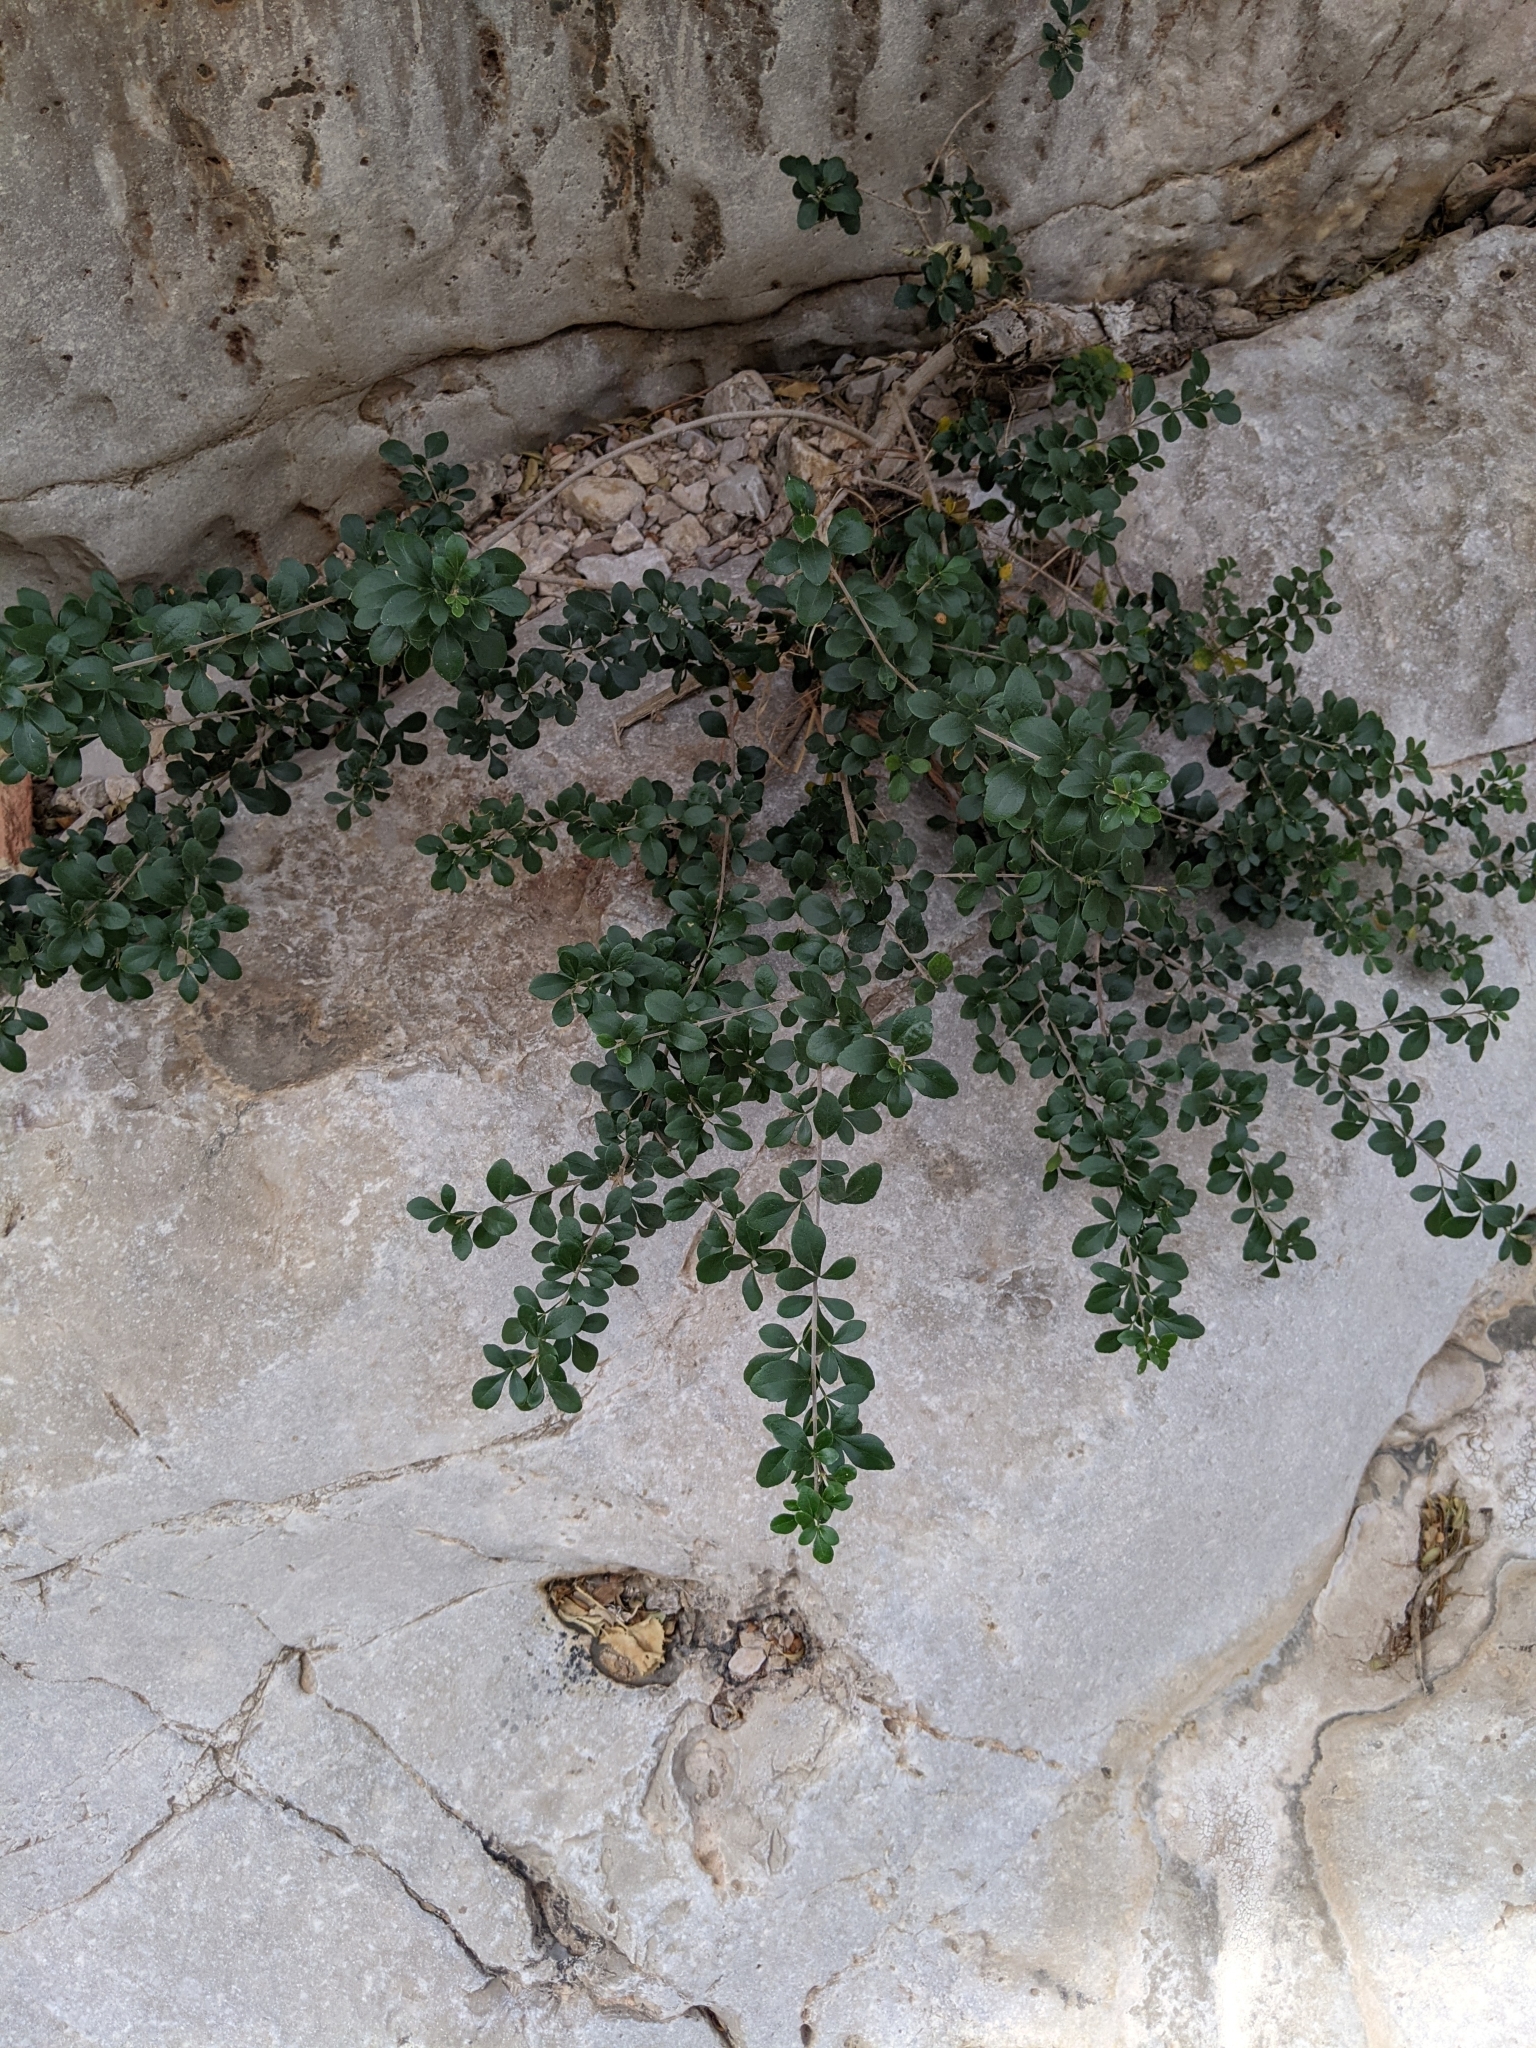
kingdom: Plantae
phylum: Tracheophyta
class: Magnoliopsida
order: Lamiales
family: Oleaceae
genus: Fraxinus
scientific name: Fraxinus greggii
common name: Gregg ash
